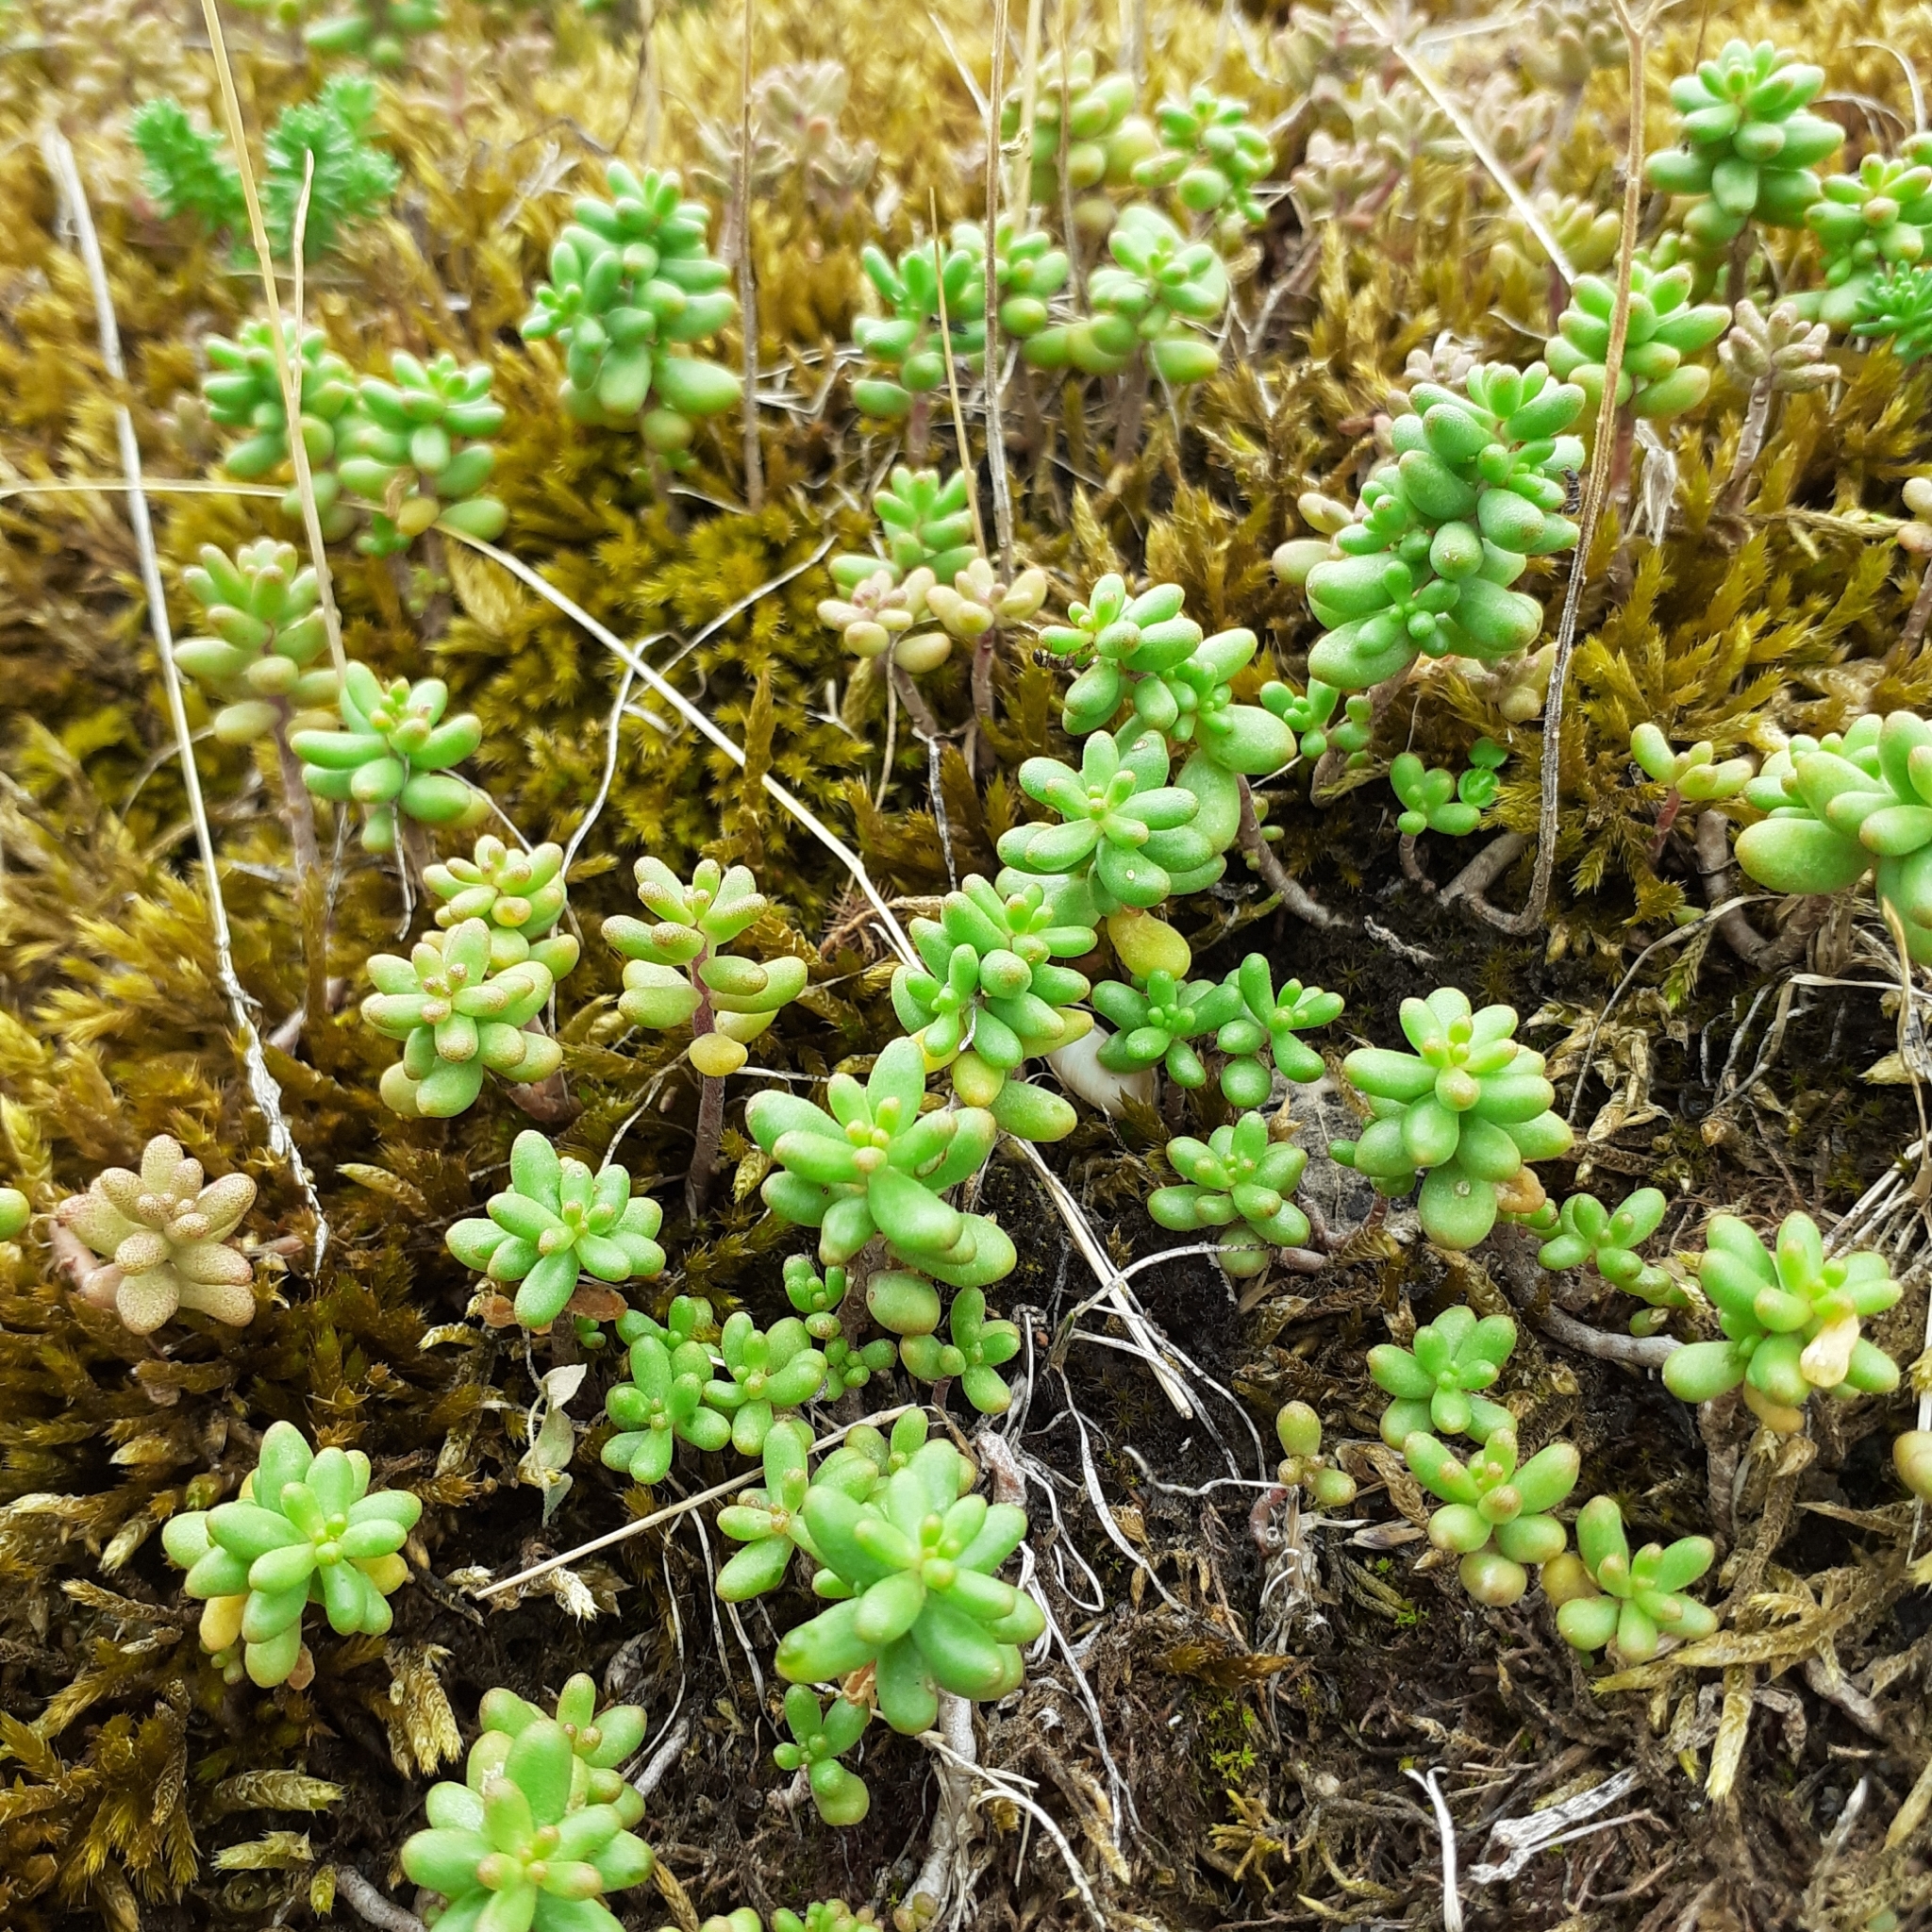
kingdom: Plantae
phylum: Tracheophyta
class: Magnoliopsida
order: Saxifragales
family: Crassulaceae
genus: Sedum
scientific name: Sedum album
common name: White stonecrop
